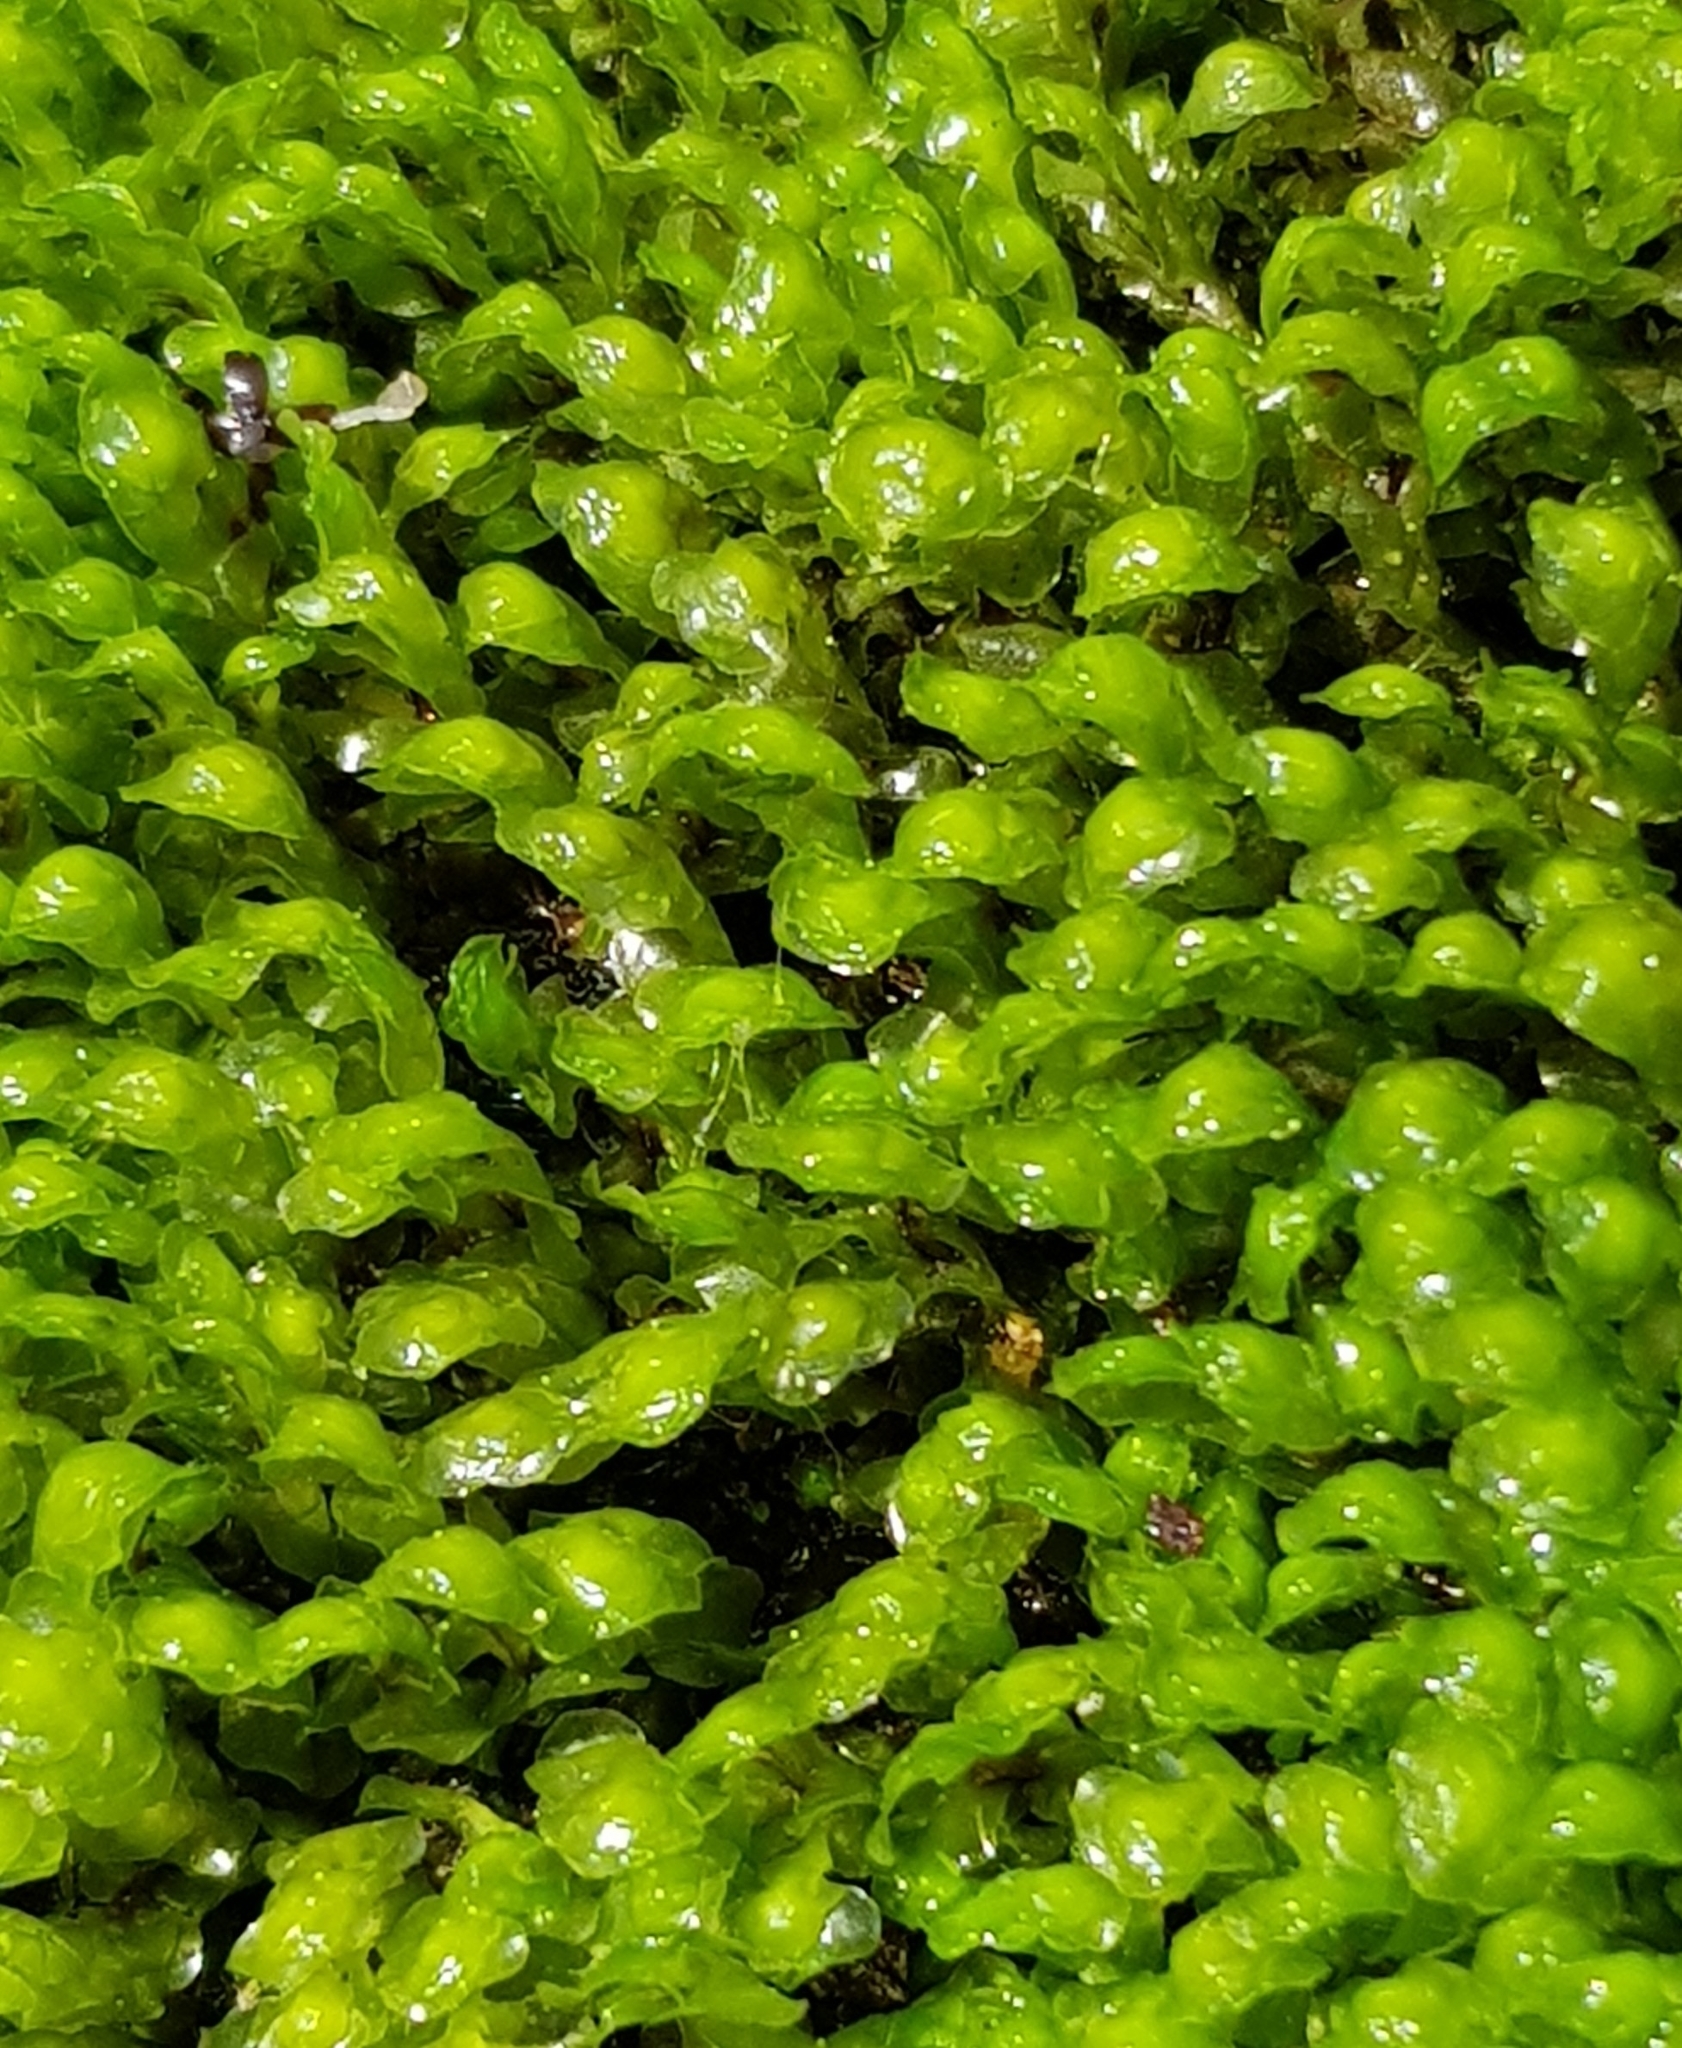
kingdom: Plantae
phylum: Marchantiophyta
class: Jungermanniopsida
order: Jungermanniales
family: Scapaniaceae
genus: Scapania
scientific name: Scapania undulata
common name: Water earwort
